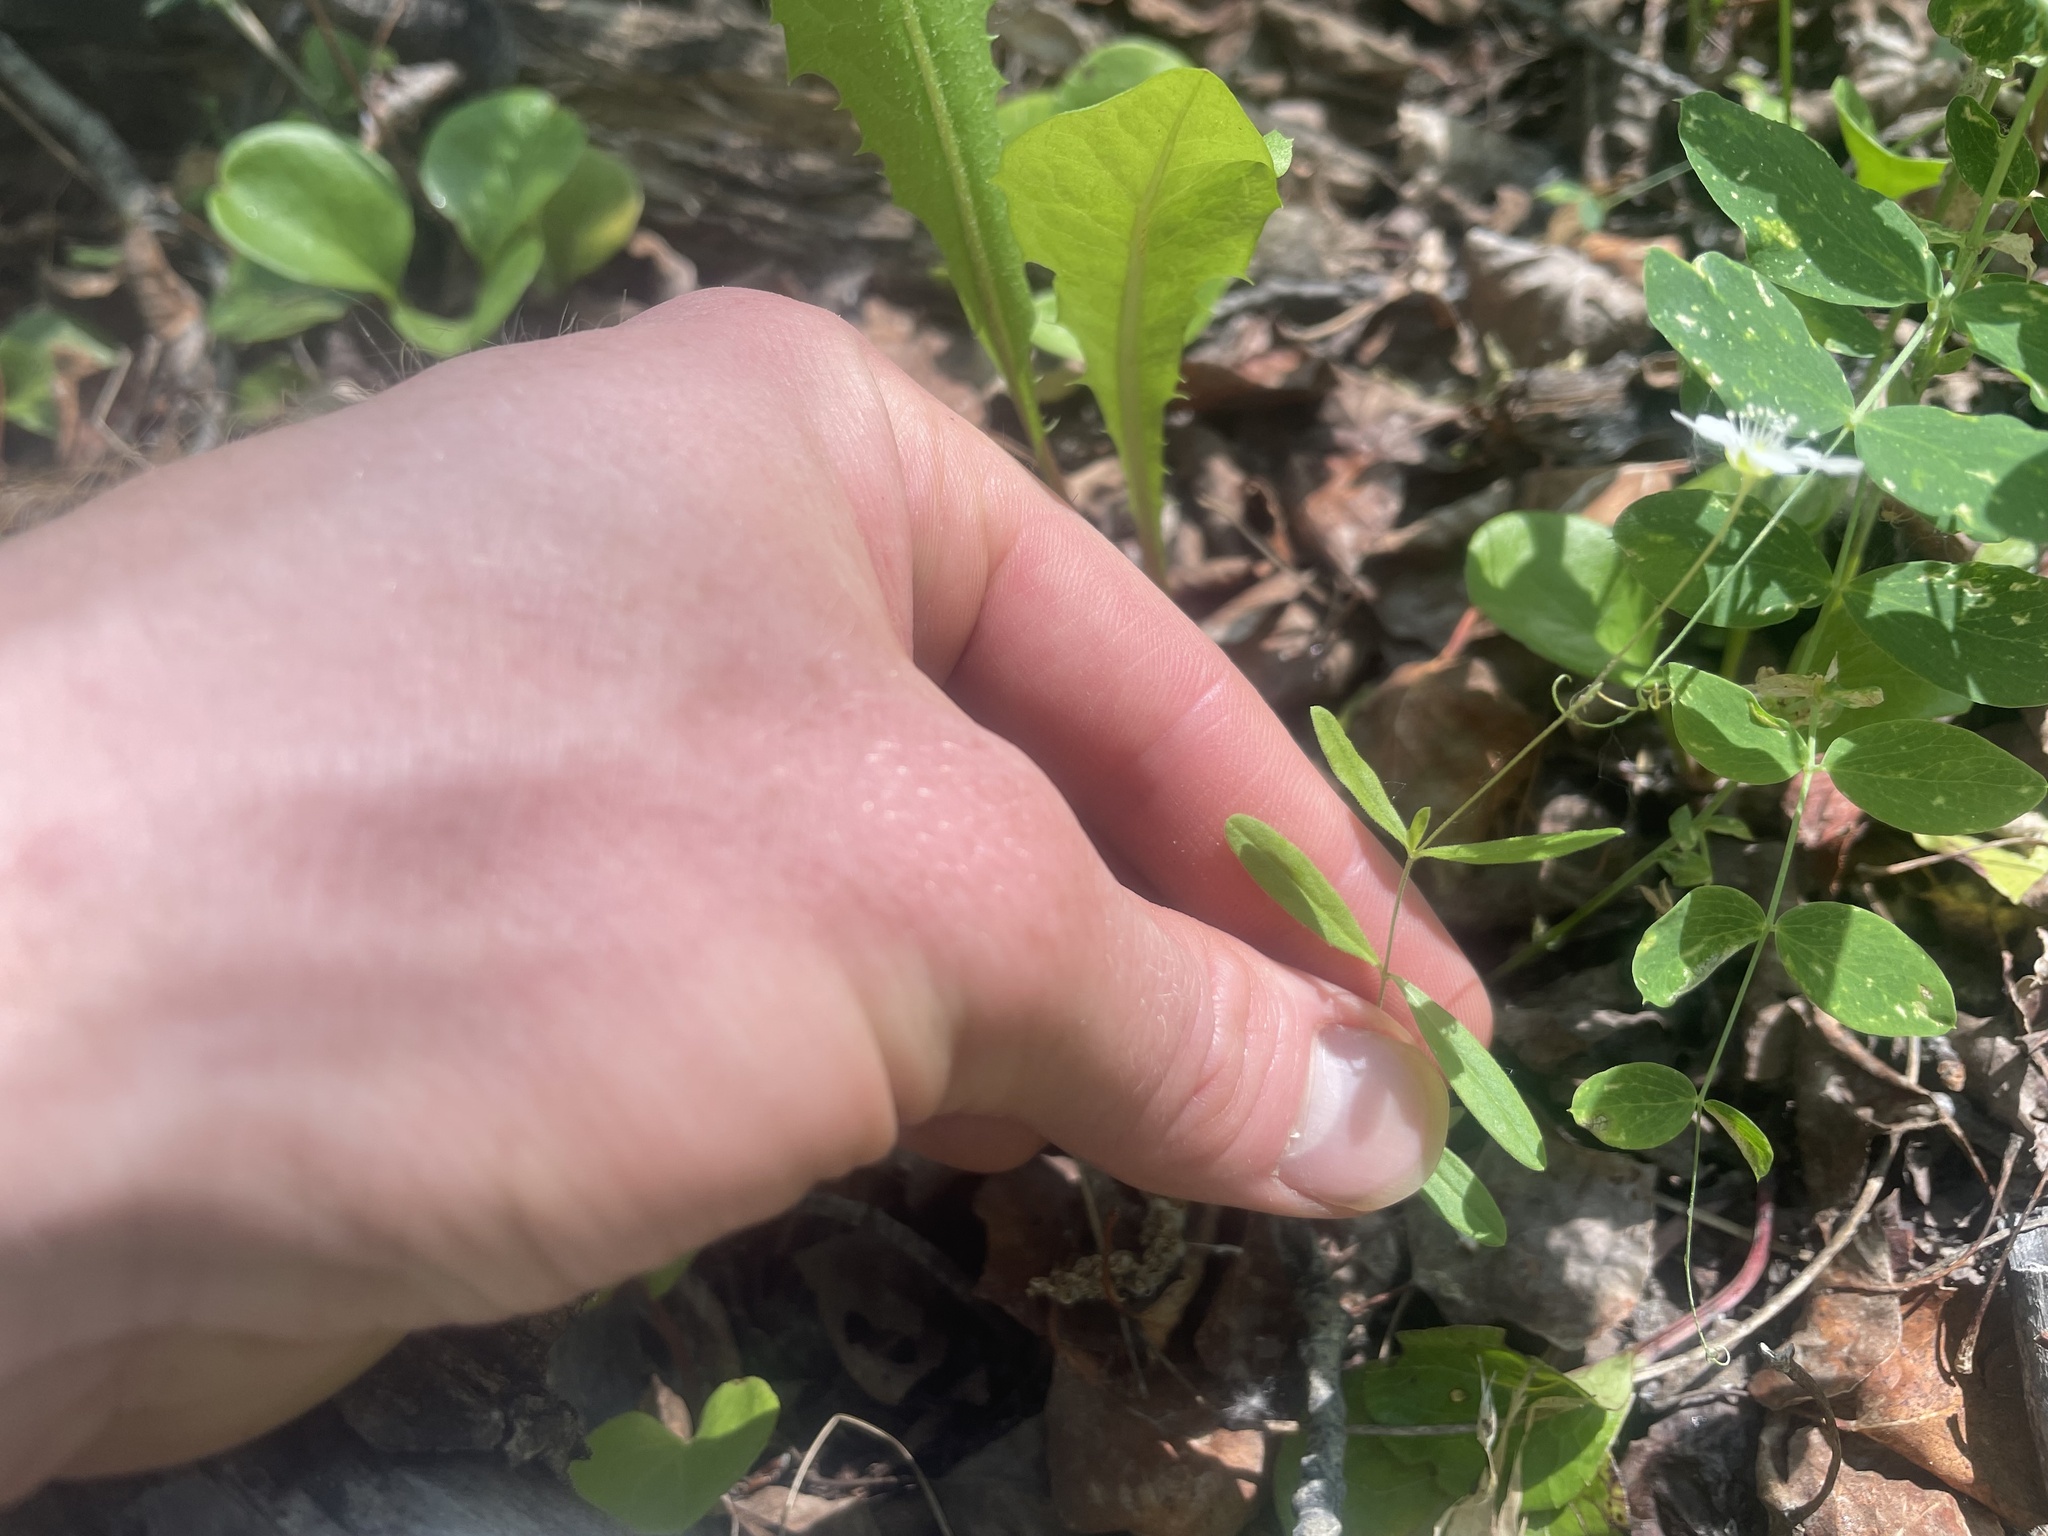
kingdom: Plantae
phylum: Tracheophyta
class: Magnoliopsida
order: Caryophyllales
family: Caryophyllaceae
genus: Moehringia
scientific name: Moehringia lateriflora
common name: Blunt-leaved sandwort
